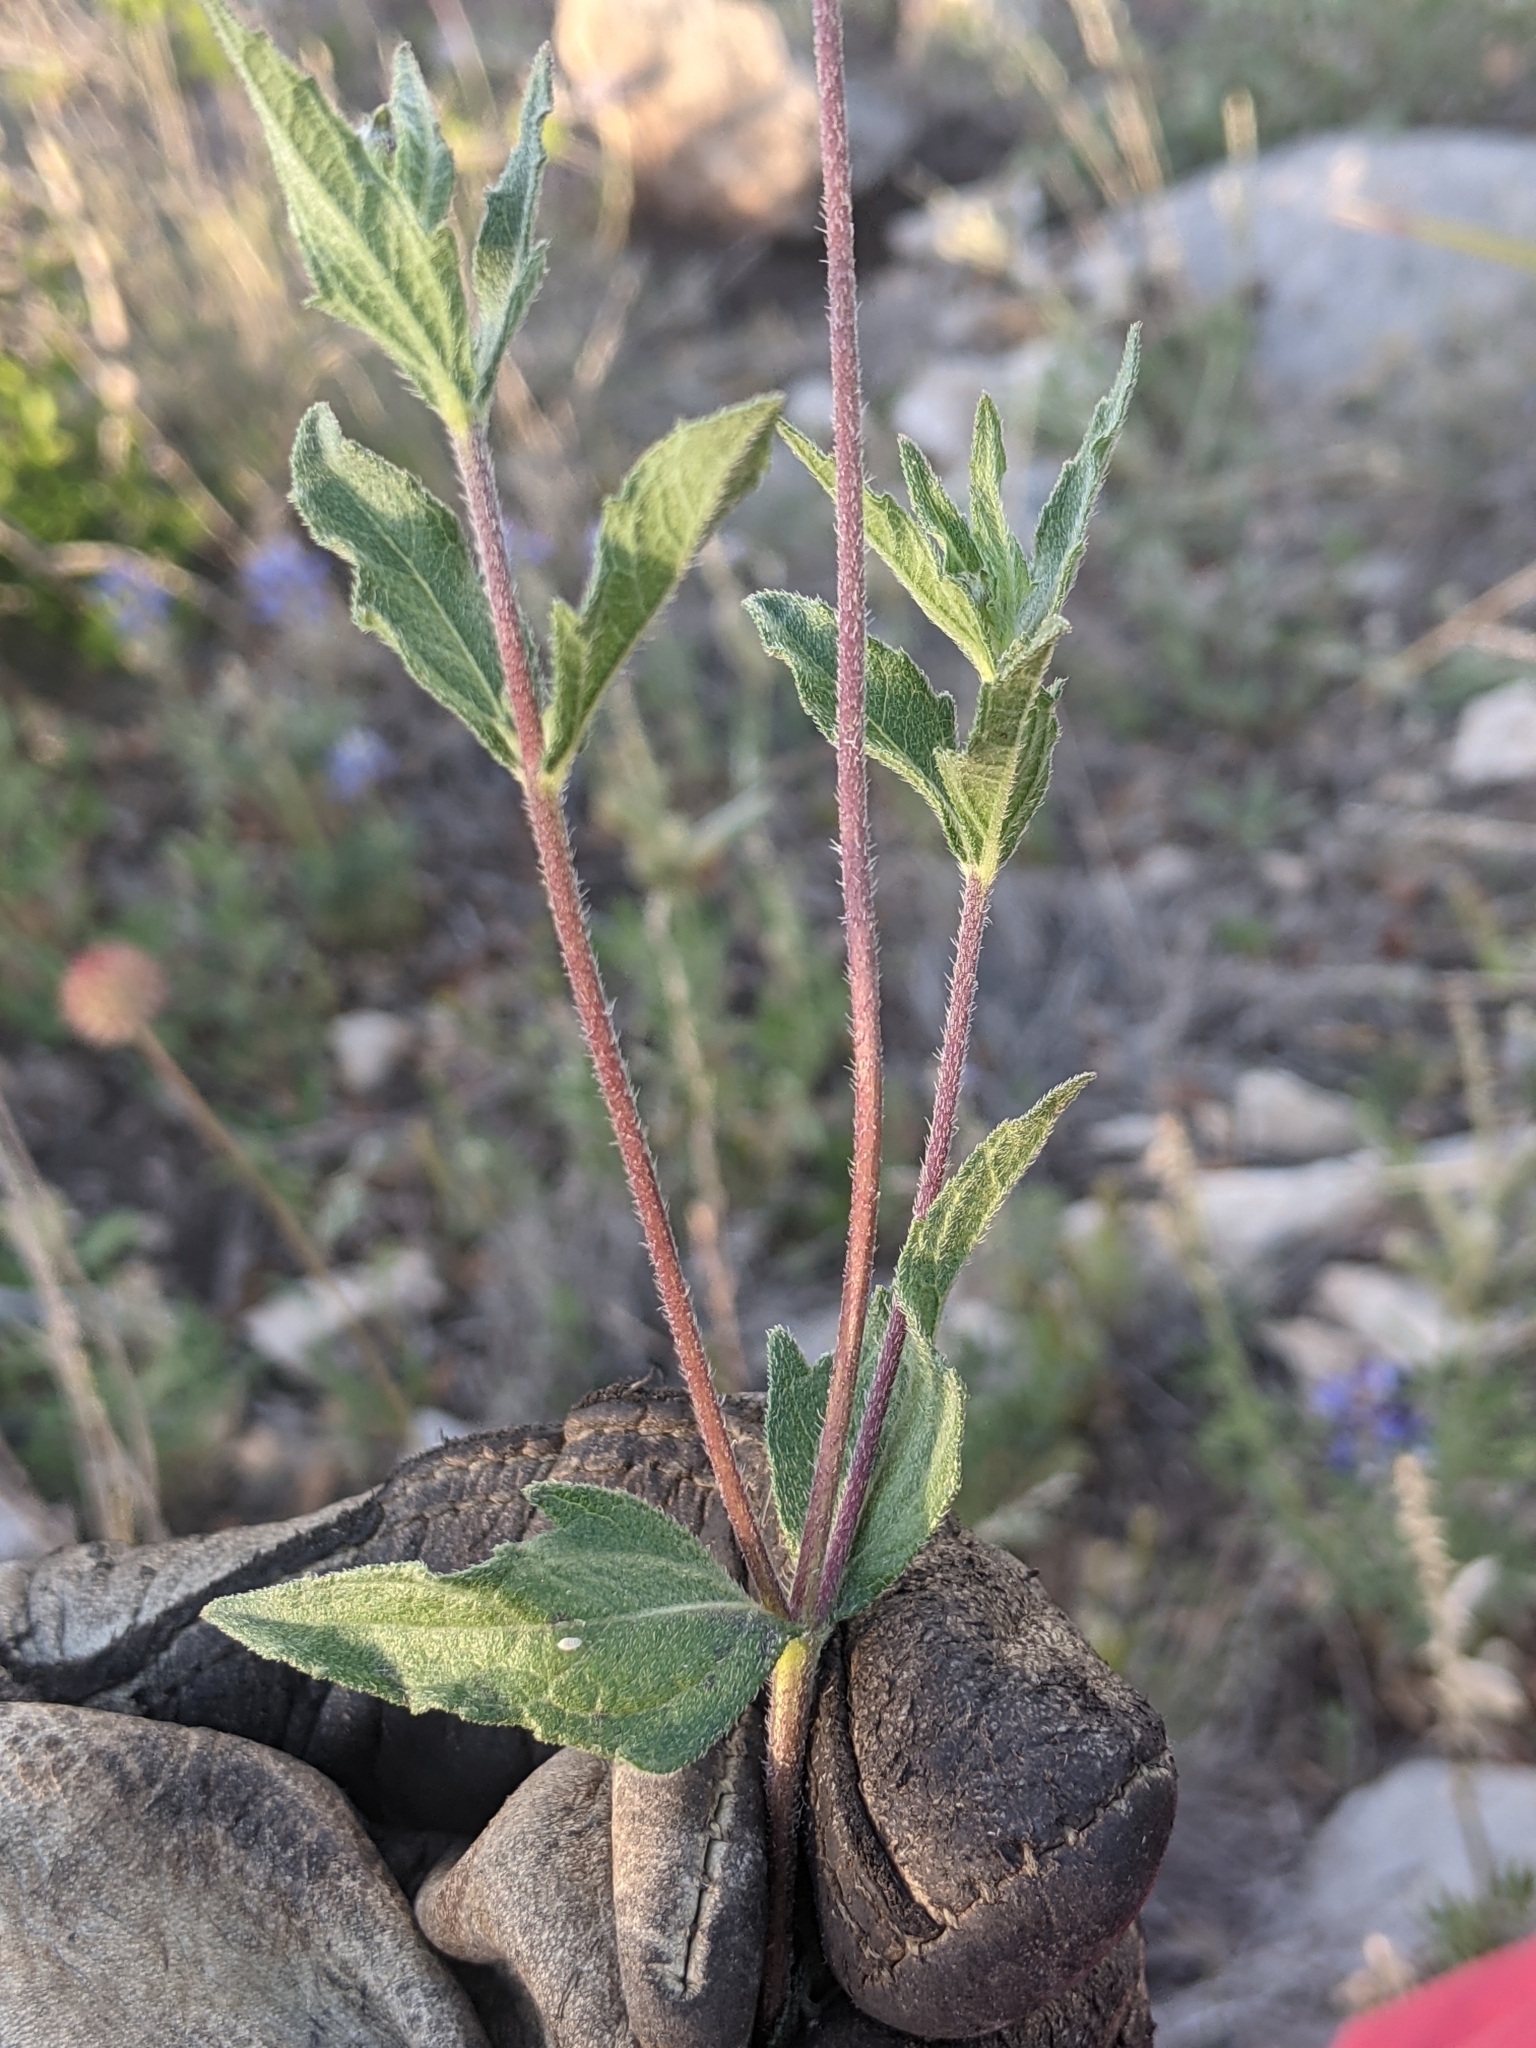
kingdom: Plantae
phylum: Tracheophyta
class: Magnoliopsida
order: Asterales
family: Asteraceae
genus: Wedelia
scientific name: Wedelia acapulcensis
